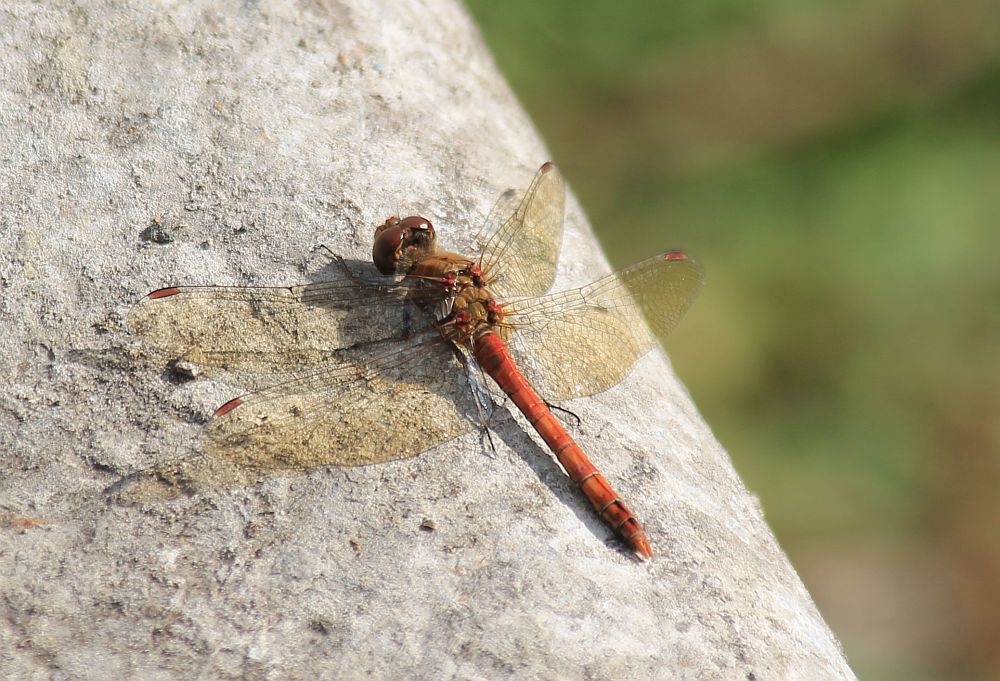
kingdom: Animalia
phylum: Arthropoda
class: Insecta
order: Odonata
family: Libellulidae
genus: Sympetrum
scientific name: Sympetrum striolatum
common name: Common darter
